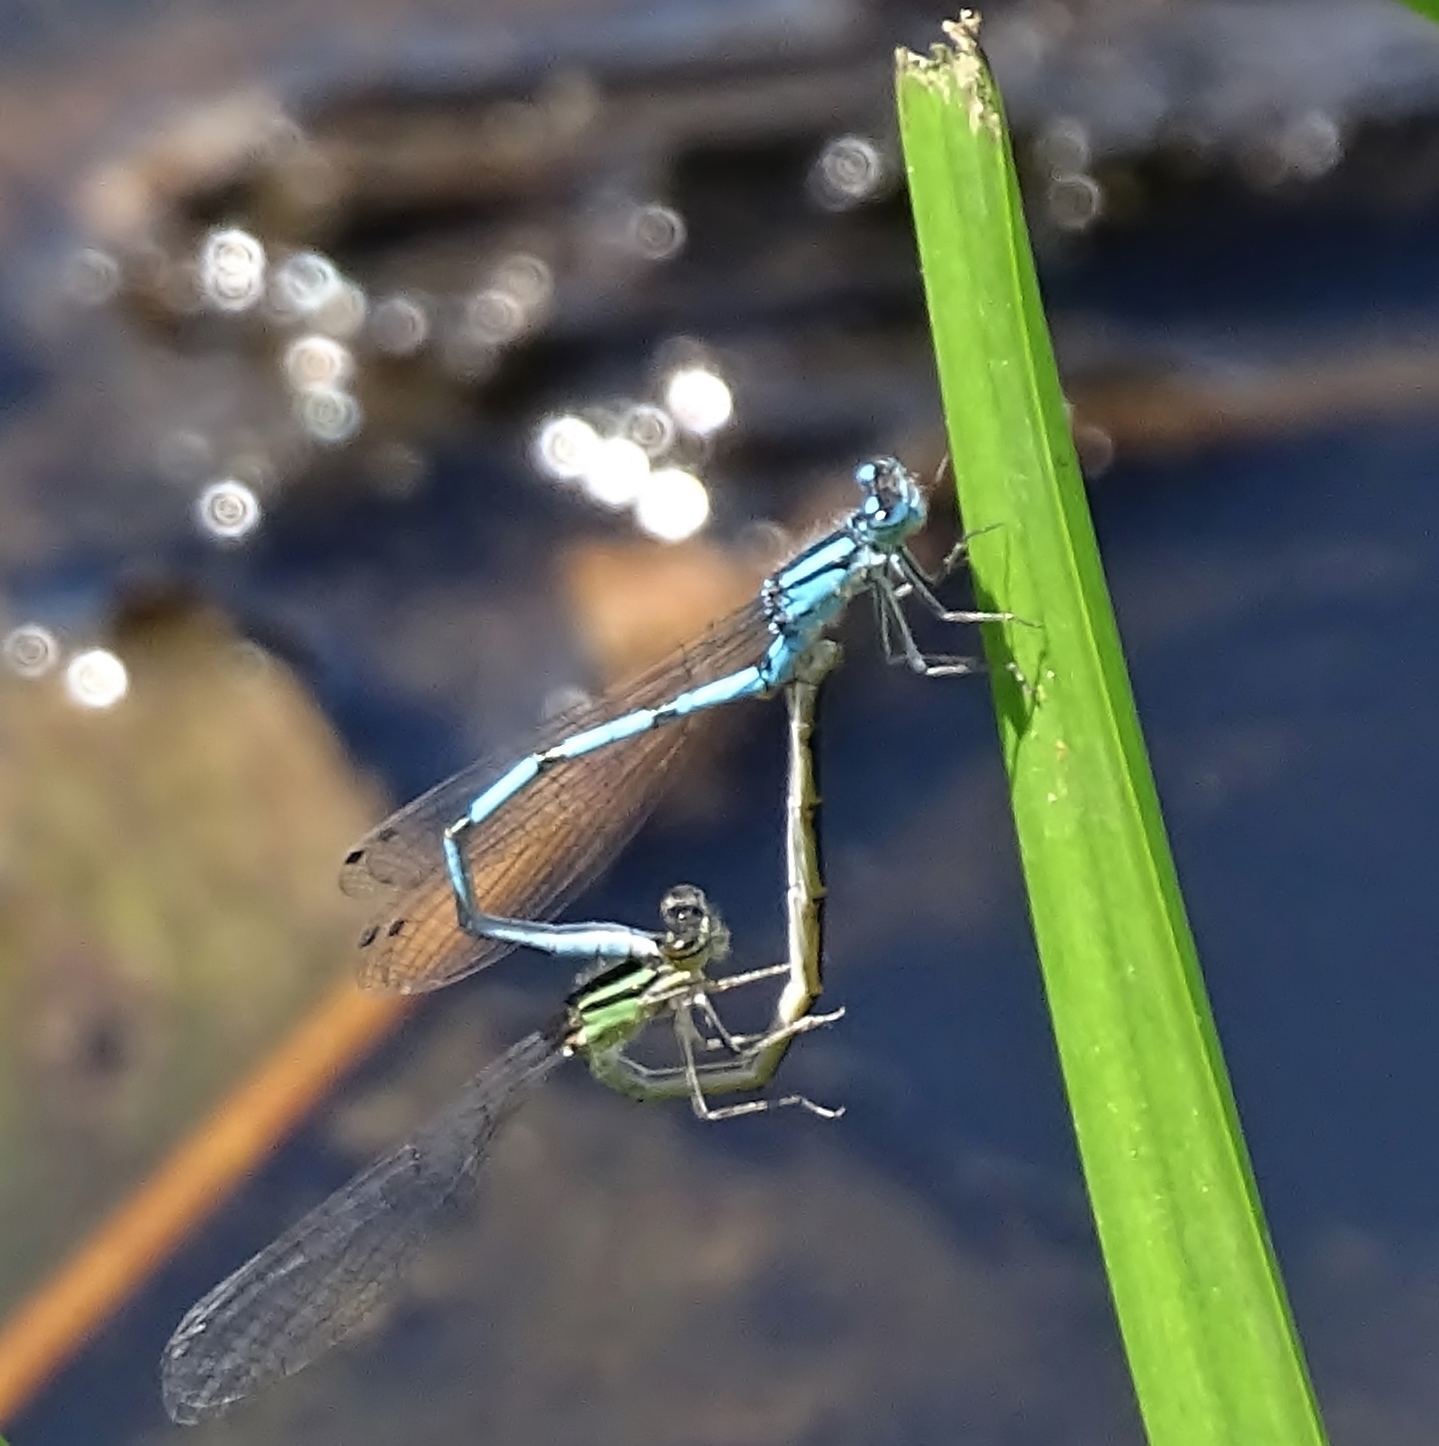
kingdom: Animalia
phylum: Arthropoda
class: Insecta
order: Odonata
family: Coenagrionidae
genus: Enallagma
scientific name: Enallagma
